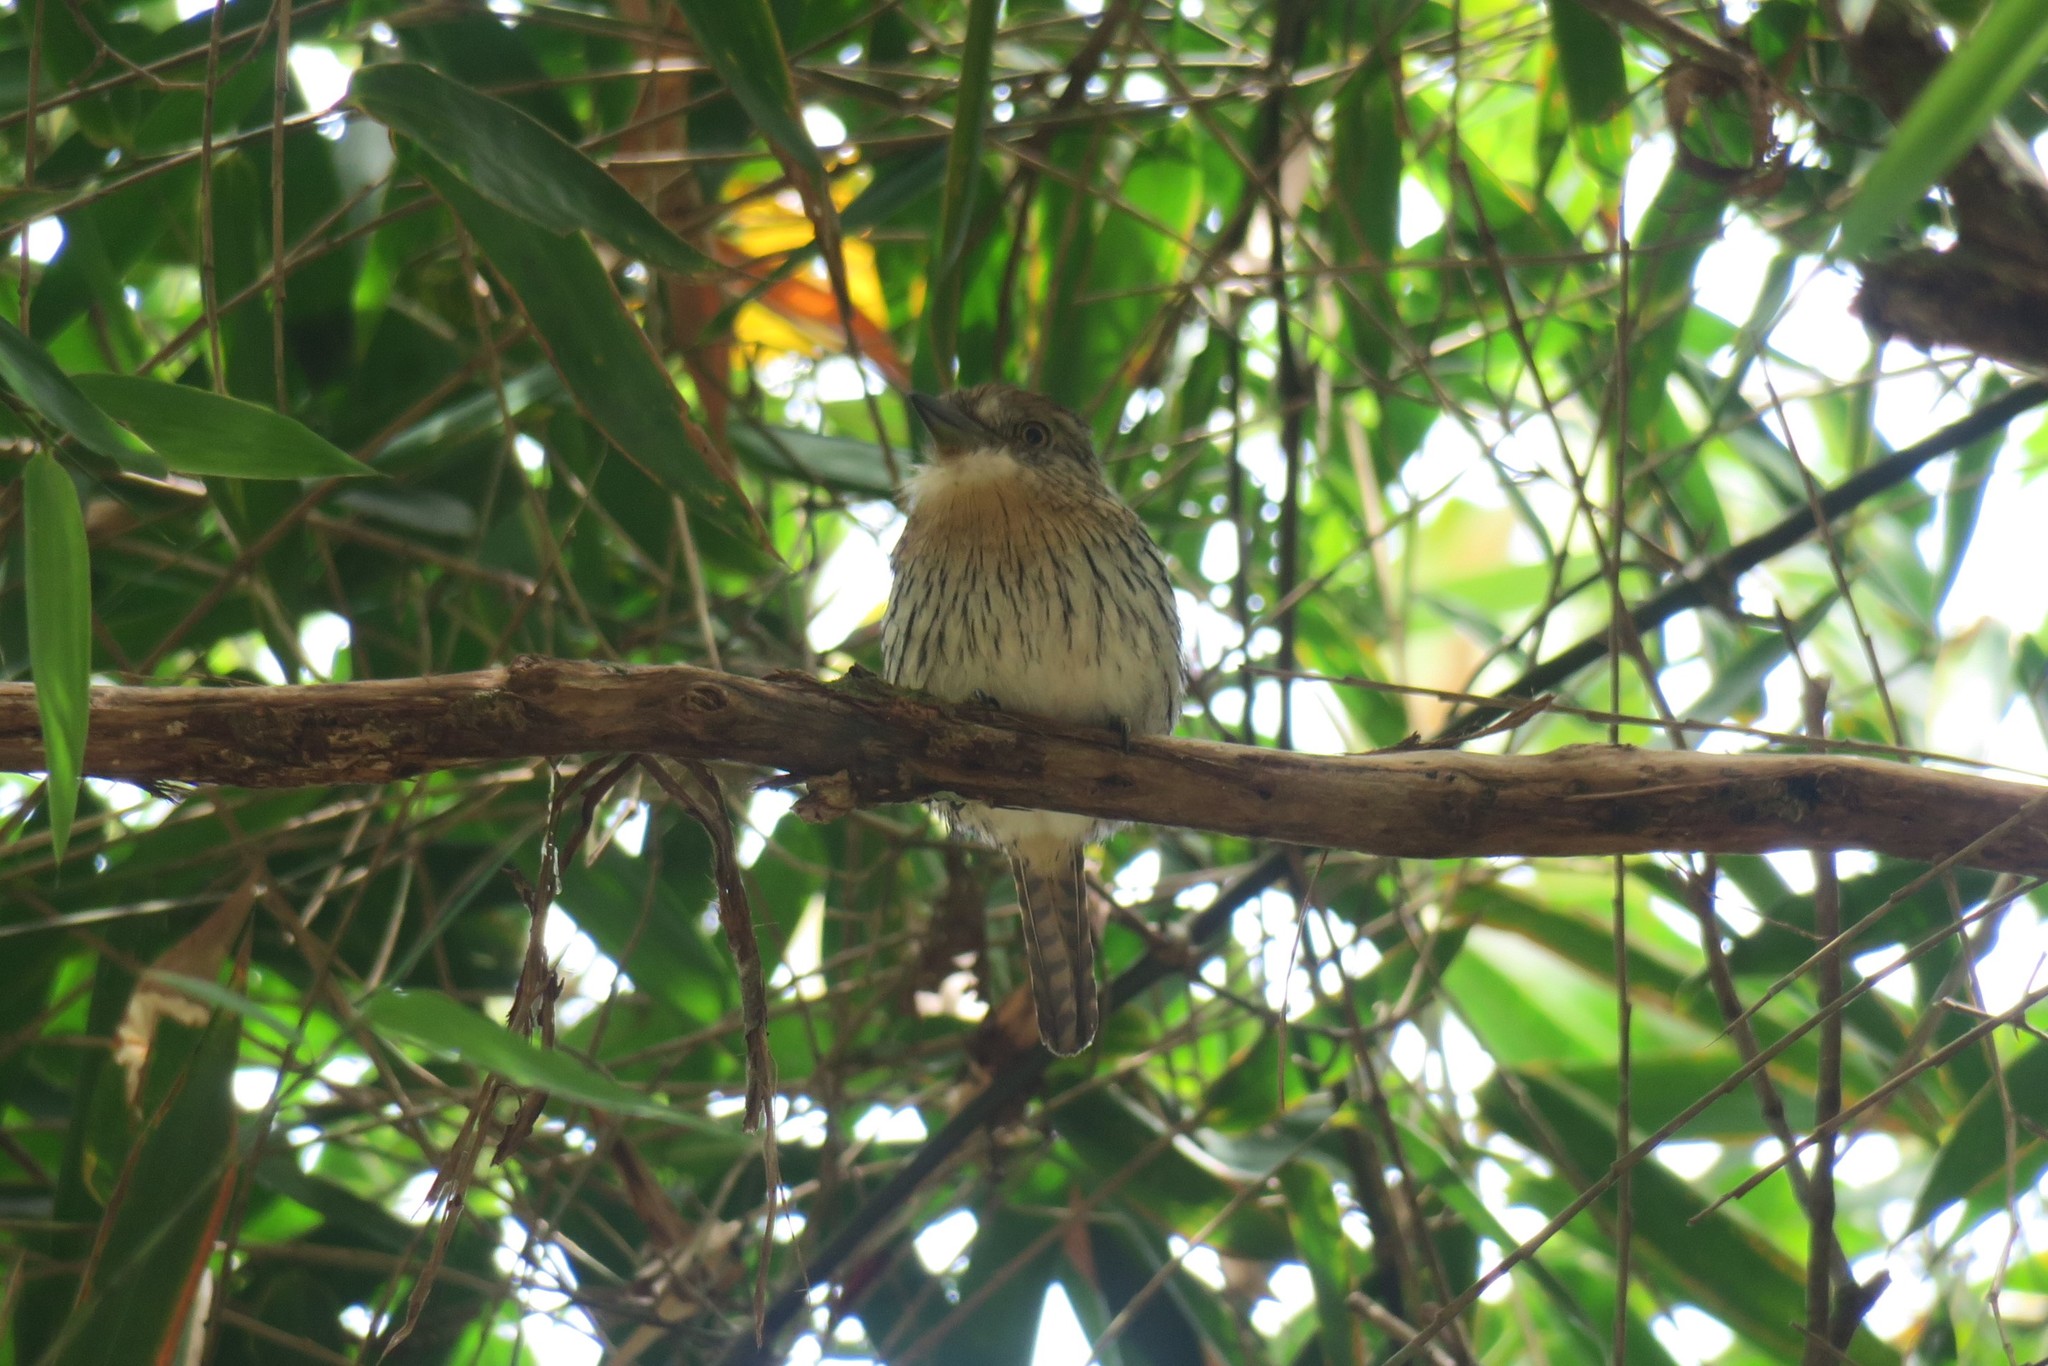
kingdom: Animalia
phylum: Chordata
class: Aves
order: Piciformes
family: Bucconidae
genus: Nystalus
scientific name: Nystalus obamai
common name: Western striolated puffbird
